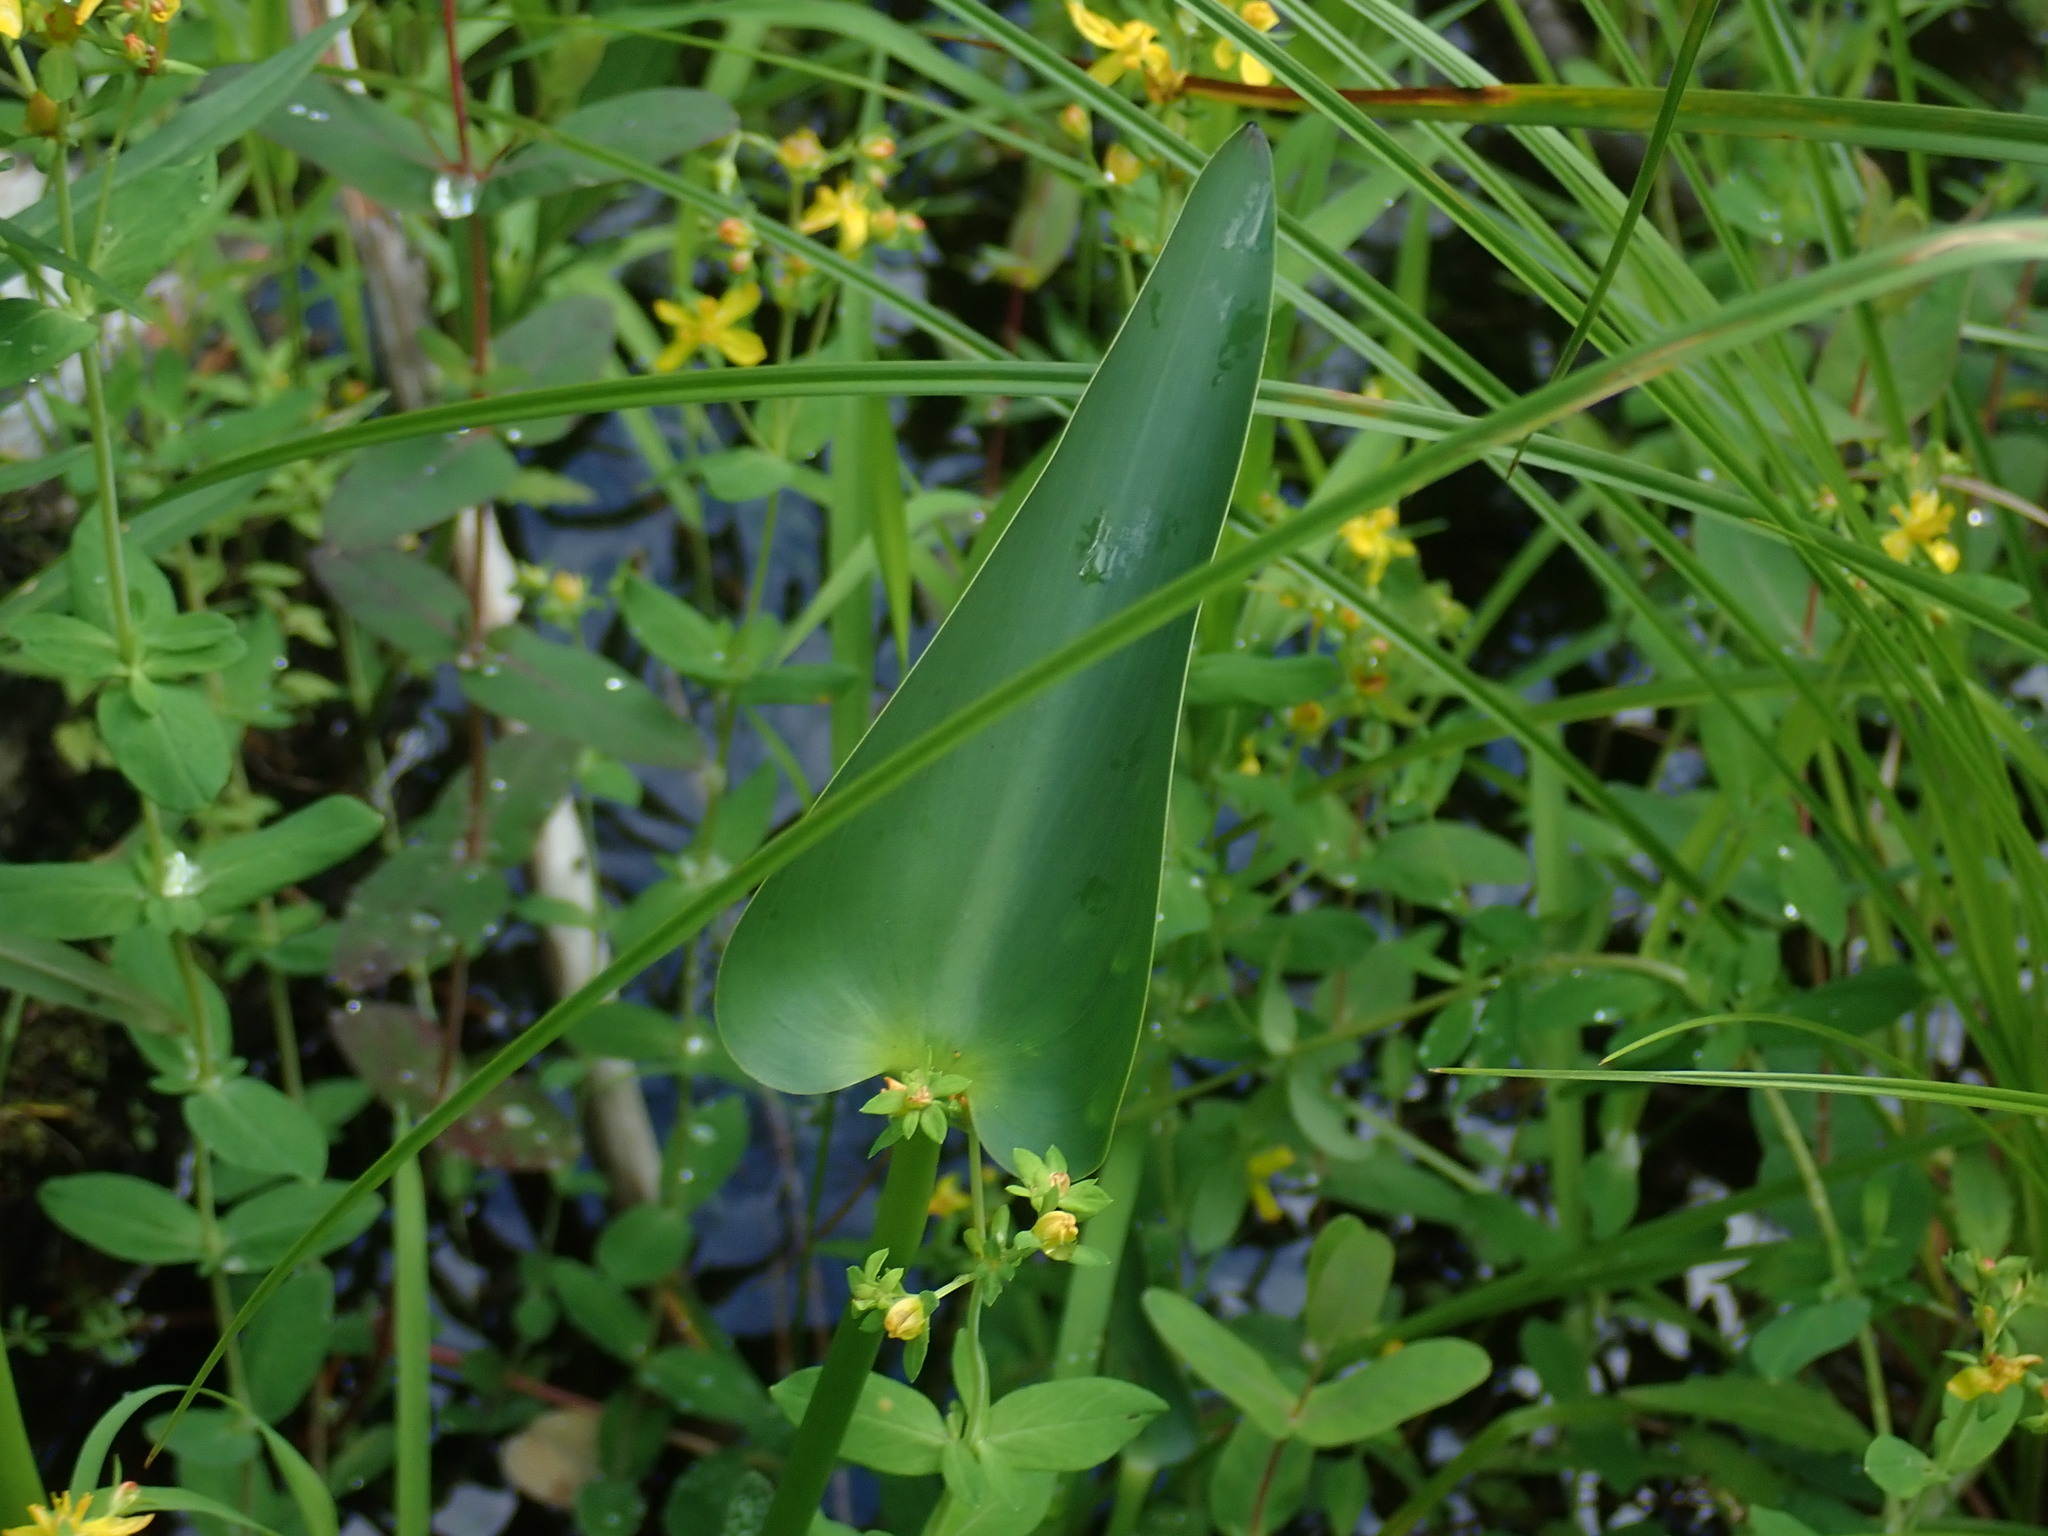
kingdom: Plantae
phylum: Tracheophyta
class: Liliopsida
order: Commelinales
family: Pontederiaceae
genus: Pontederia
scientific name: Pontederia cordata
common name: Pickerelweed
